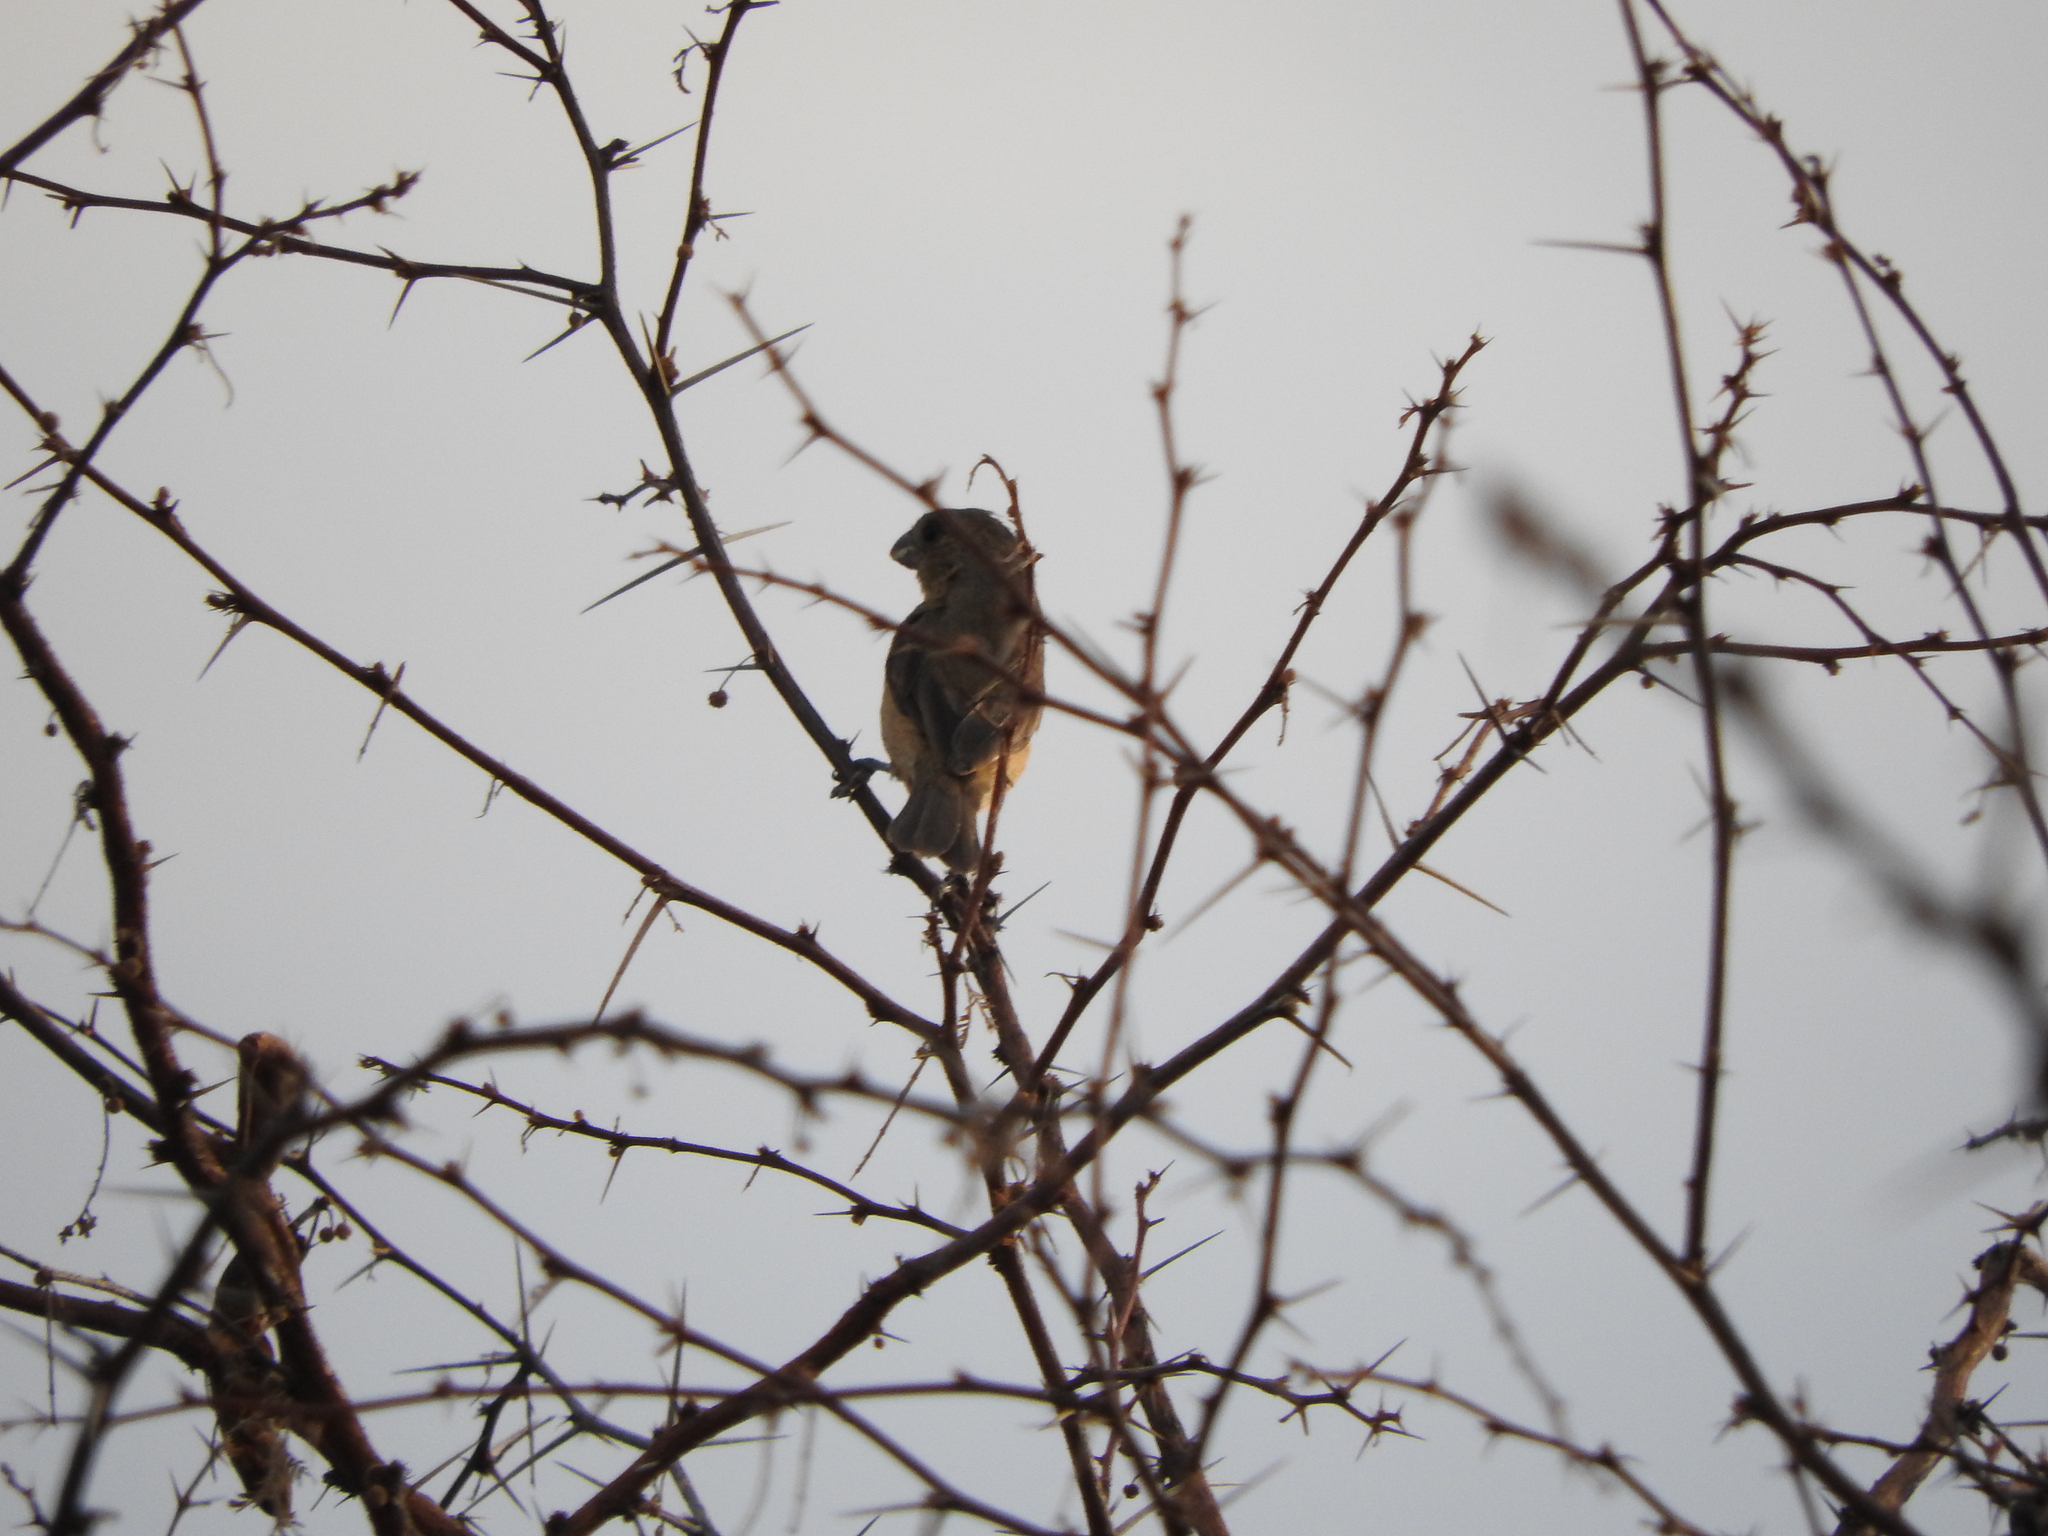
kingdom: Animalia
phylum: Chordata
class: Aves
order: Passeriformes
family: Thraupidae
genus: Sporophila
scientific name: Sporophila torqueola
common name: White-collared seedeater
